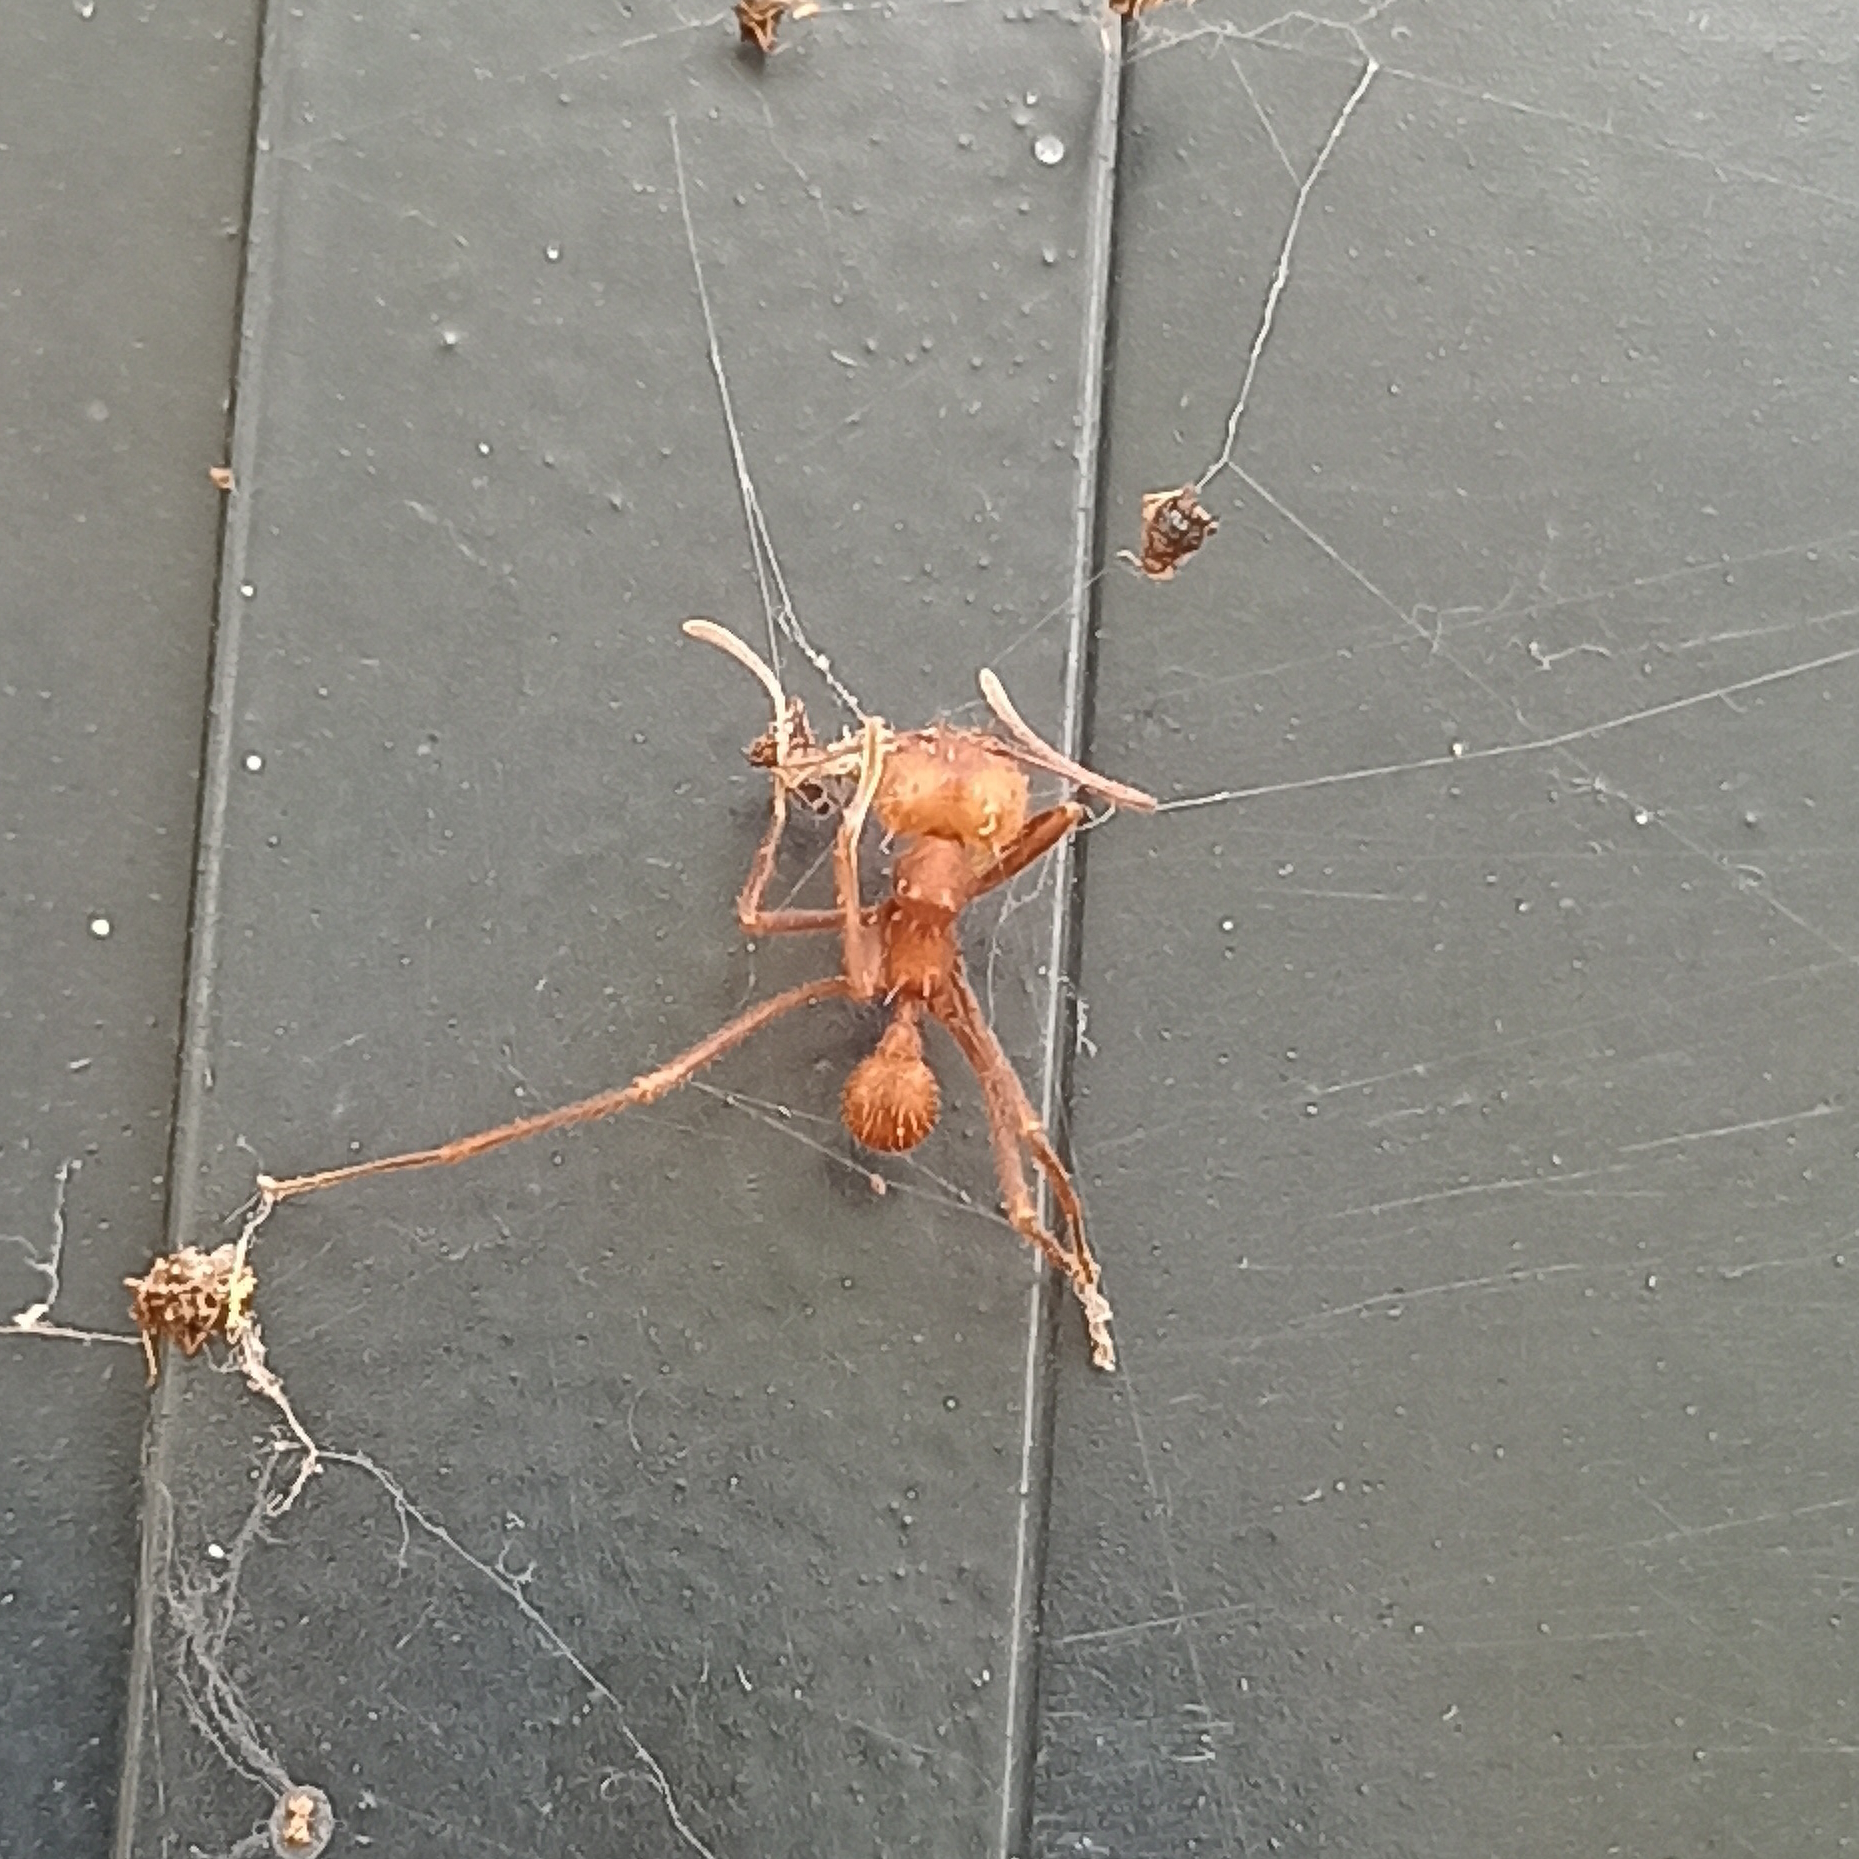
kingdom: Animalia
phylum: Arthropoda
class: Insecta
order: Hymenoptera
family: Formicidae
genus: Atta
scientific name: Atta
